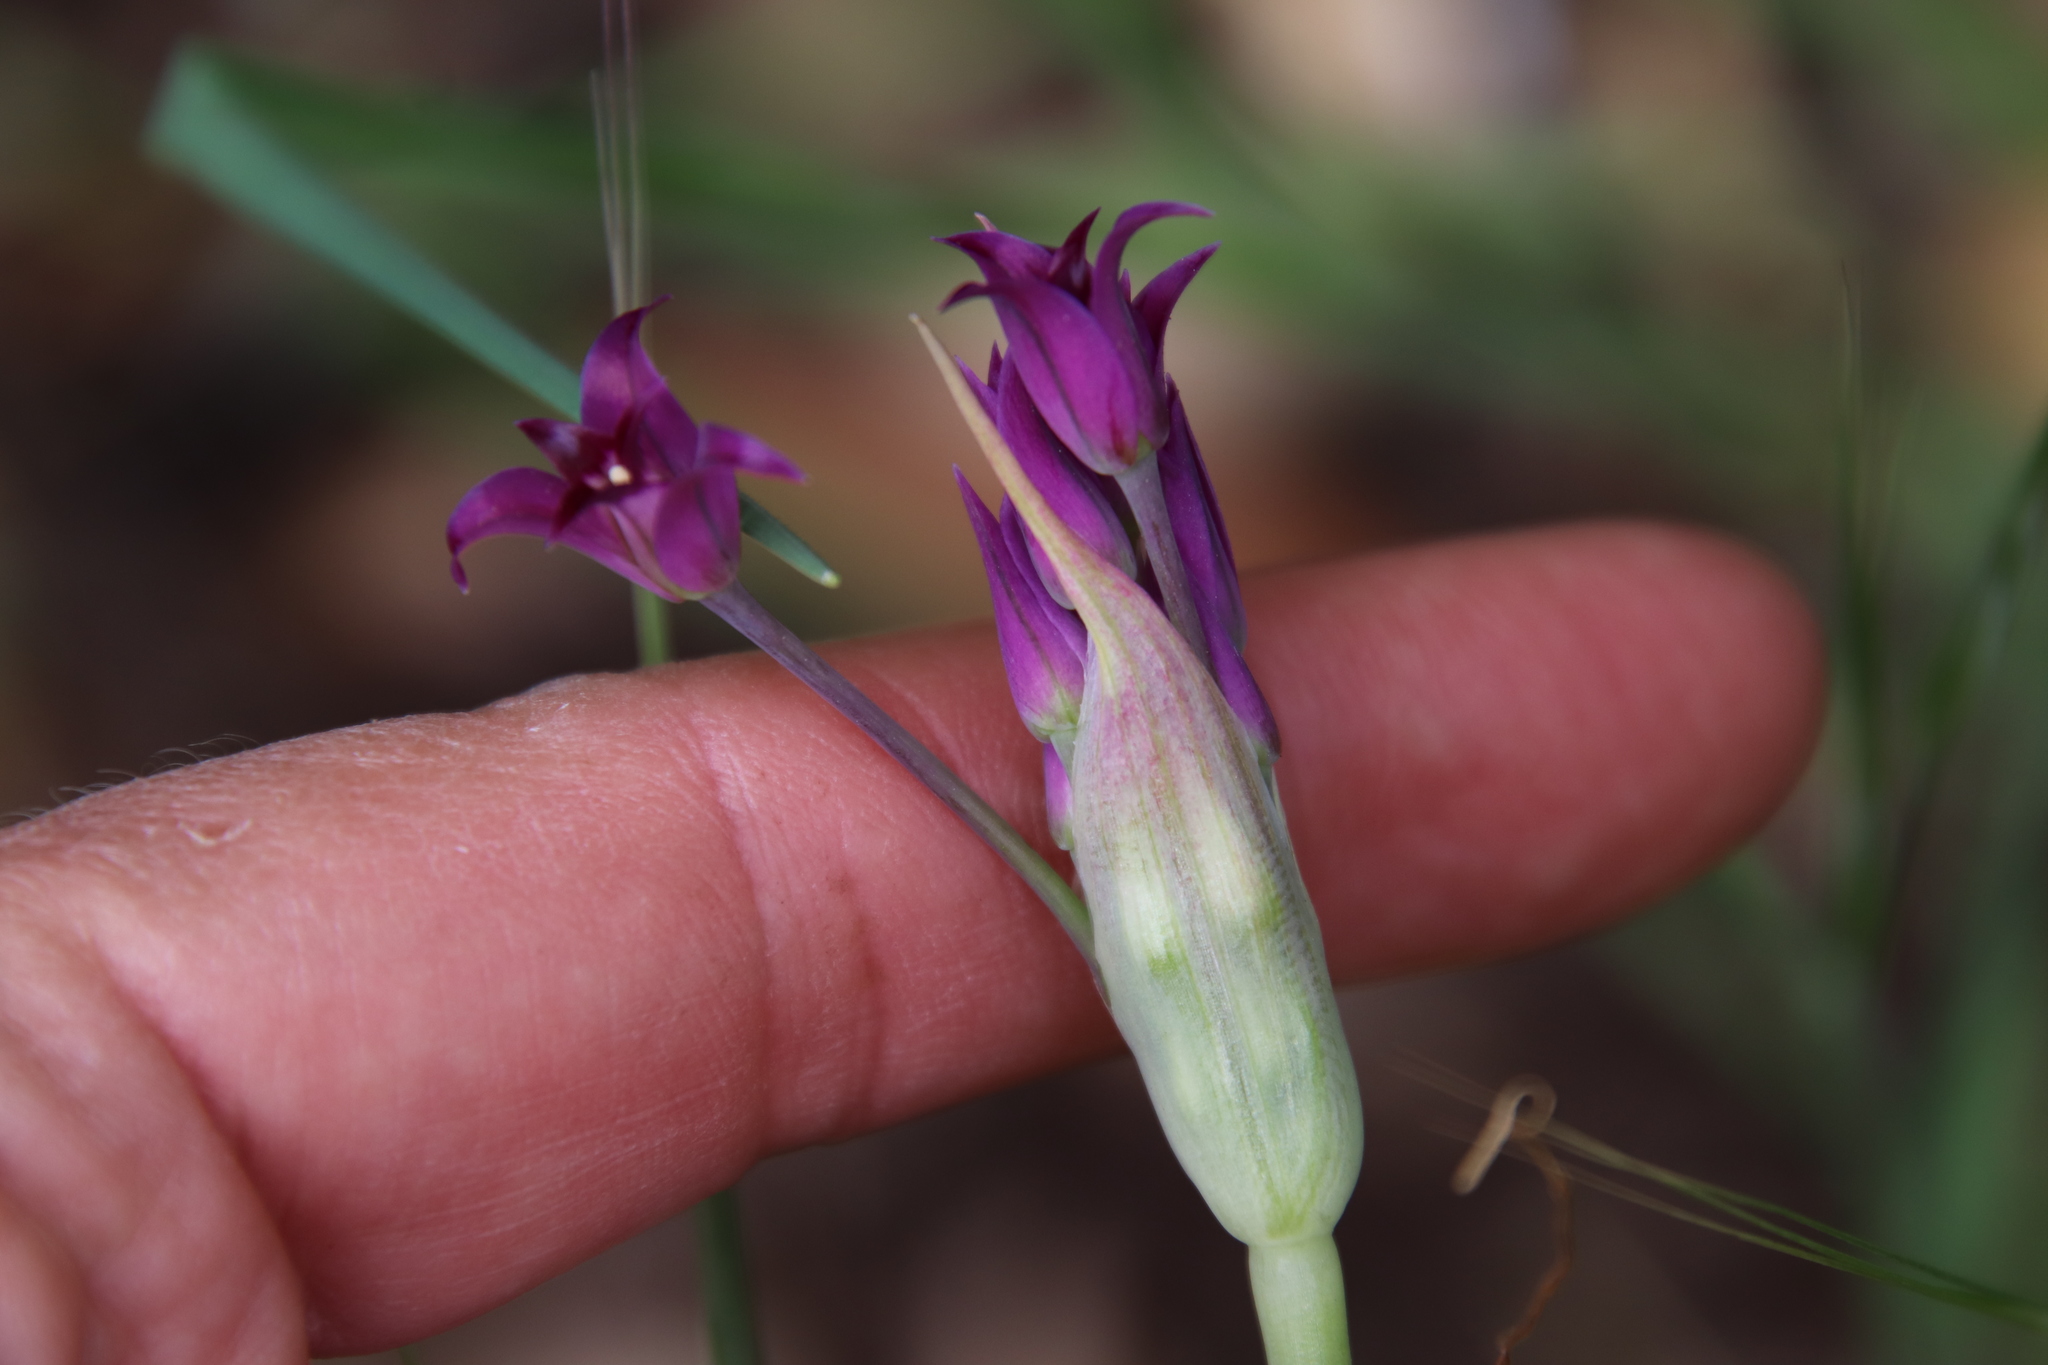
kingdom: Plantae
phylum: Tracheophyta
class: Liliopsida
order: Asparagales
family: Amaryllidaceae
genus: Allium
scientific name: Allium peninsulare
